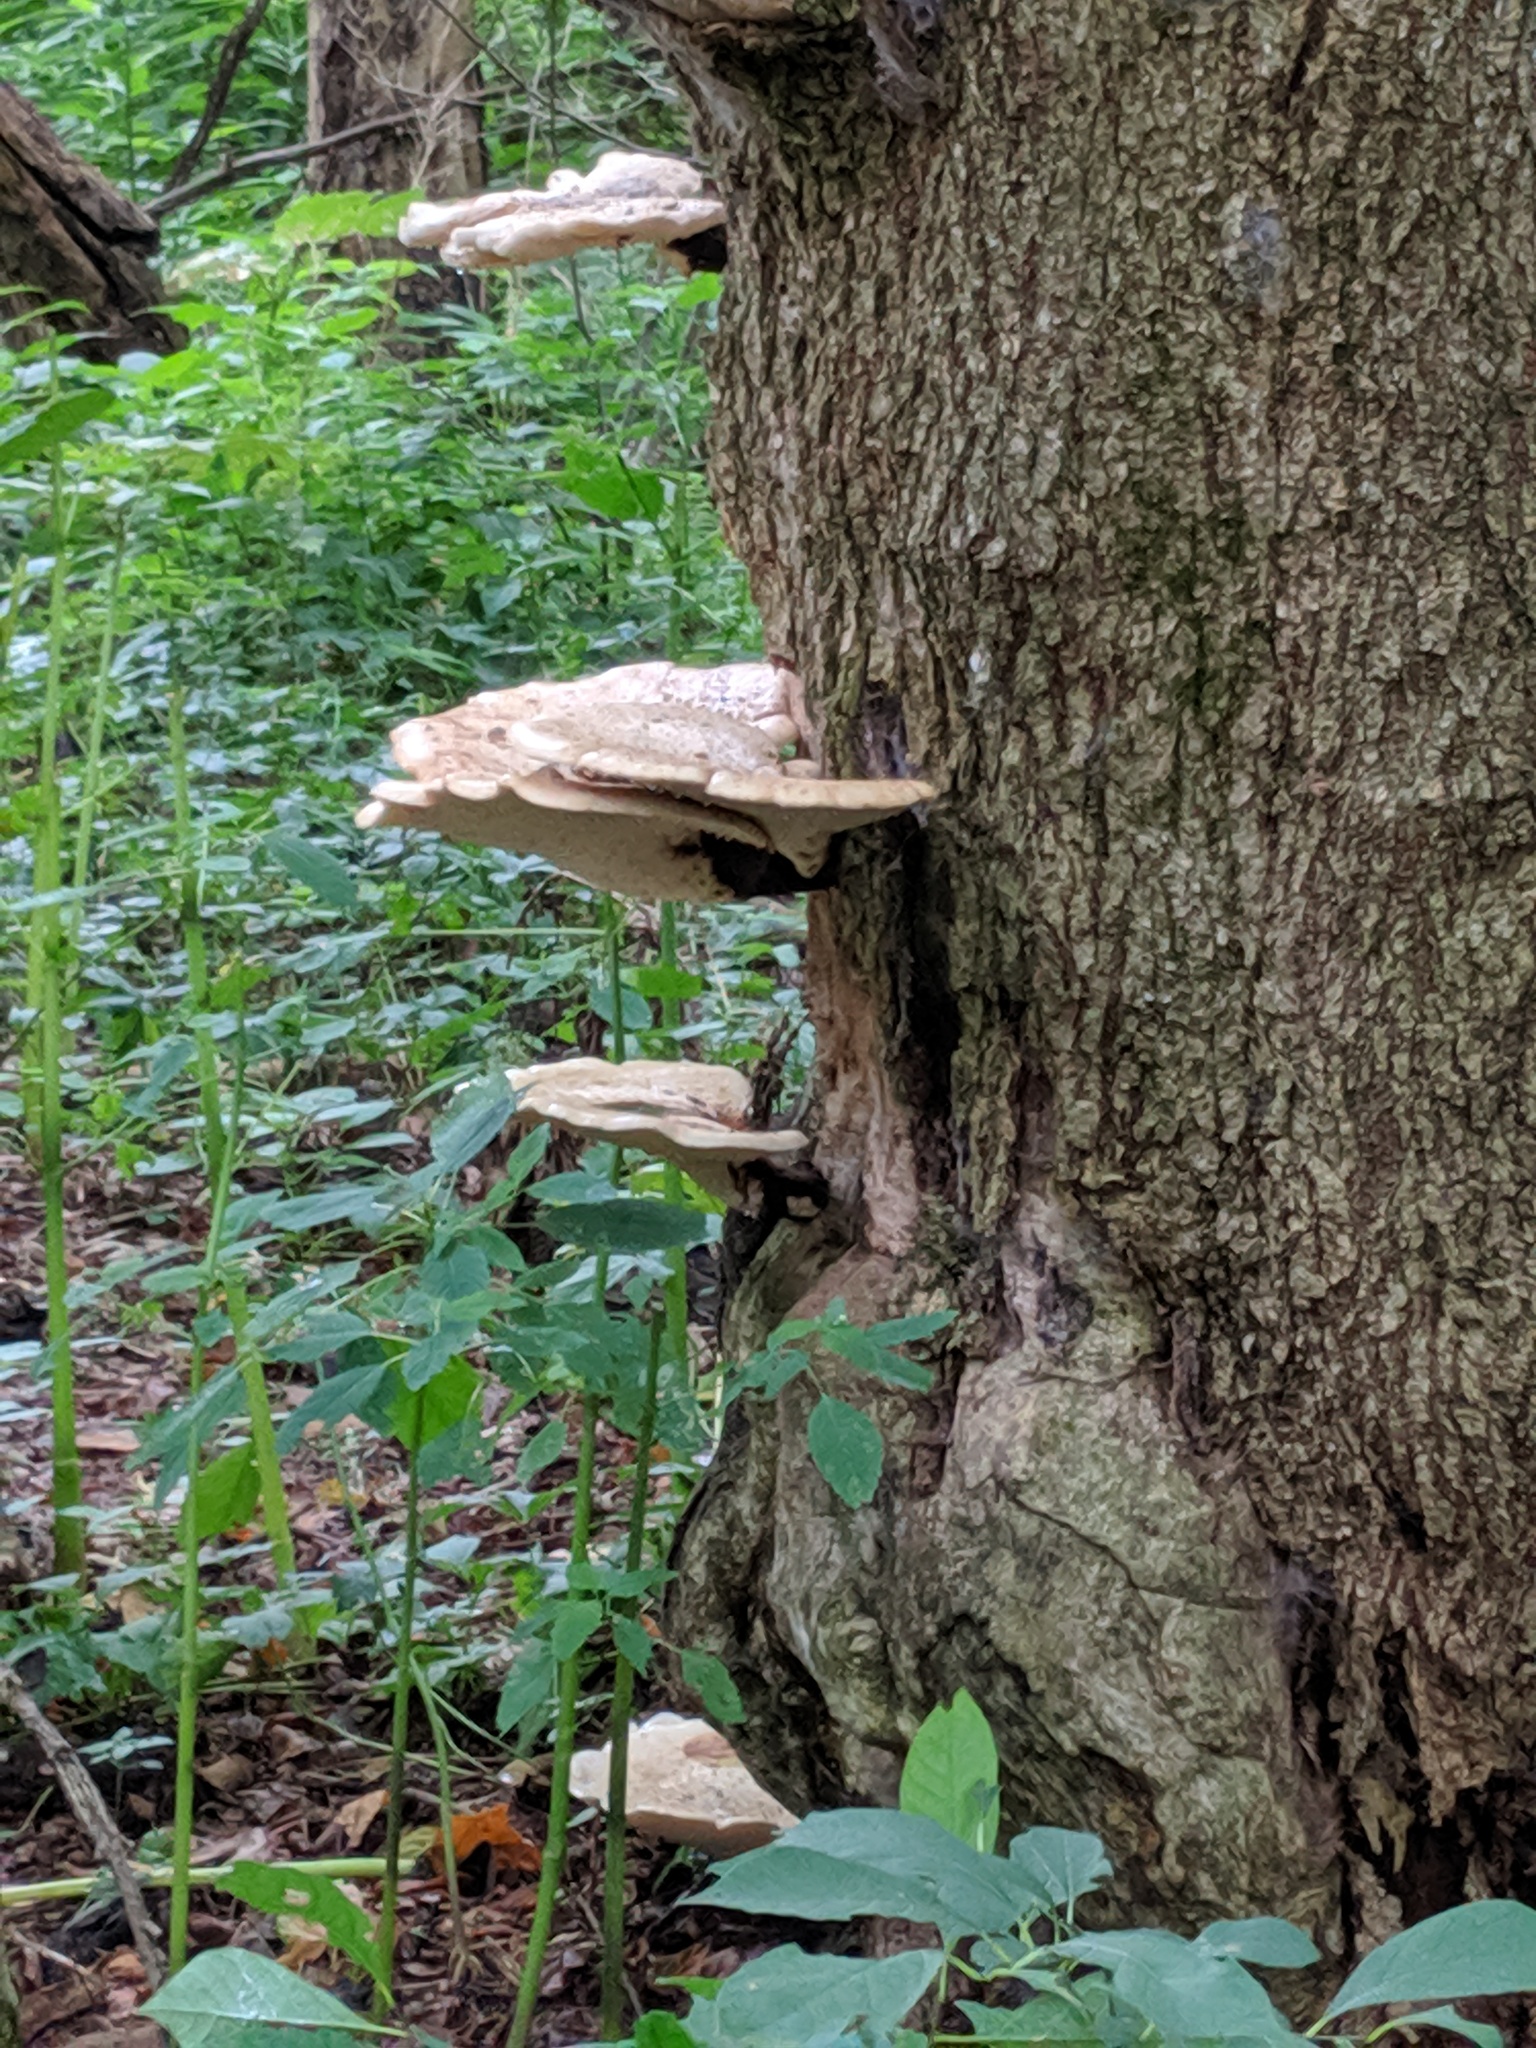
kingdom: Fungi
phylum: Basidiomycota
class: Agaricomycetes
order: Polyporales
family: Polyporaceae
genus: Cerioporus
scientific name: Cerioporus squamosus
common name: Dryad's saddle
